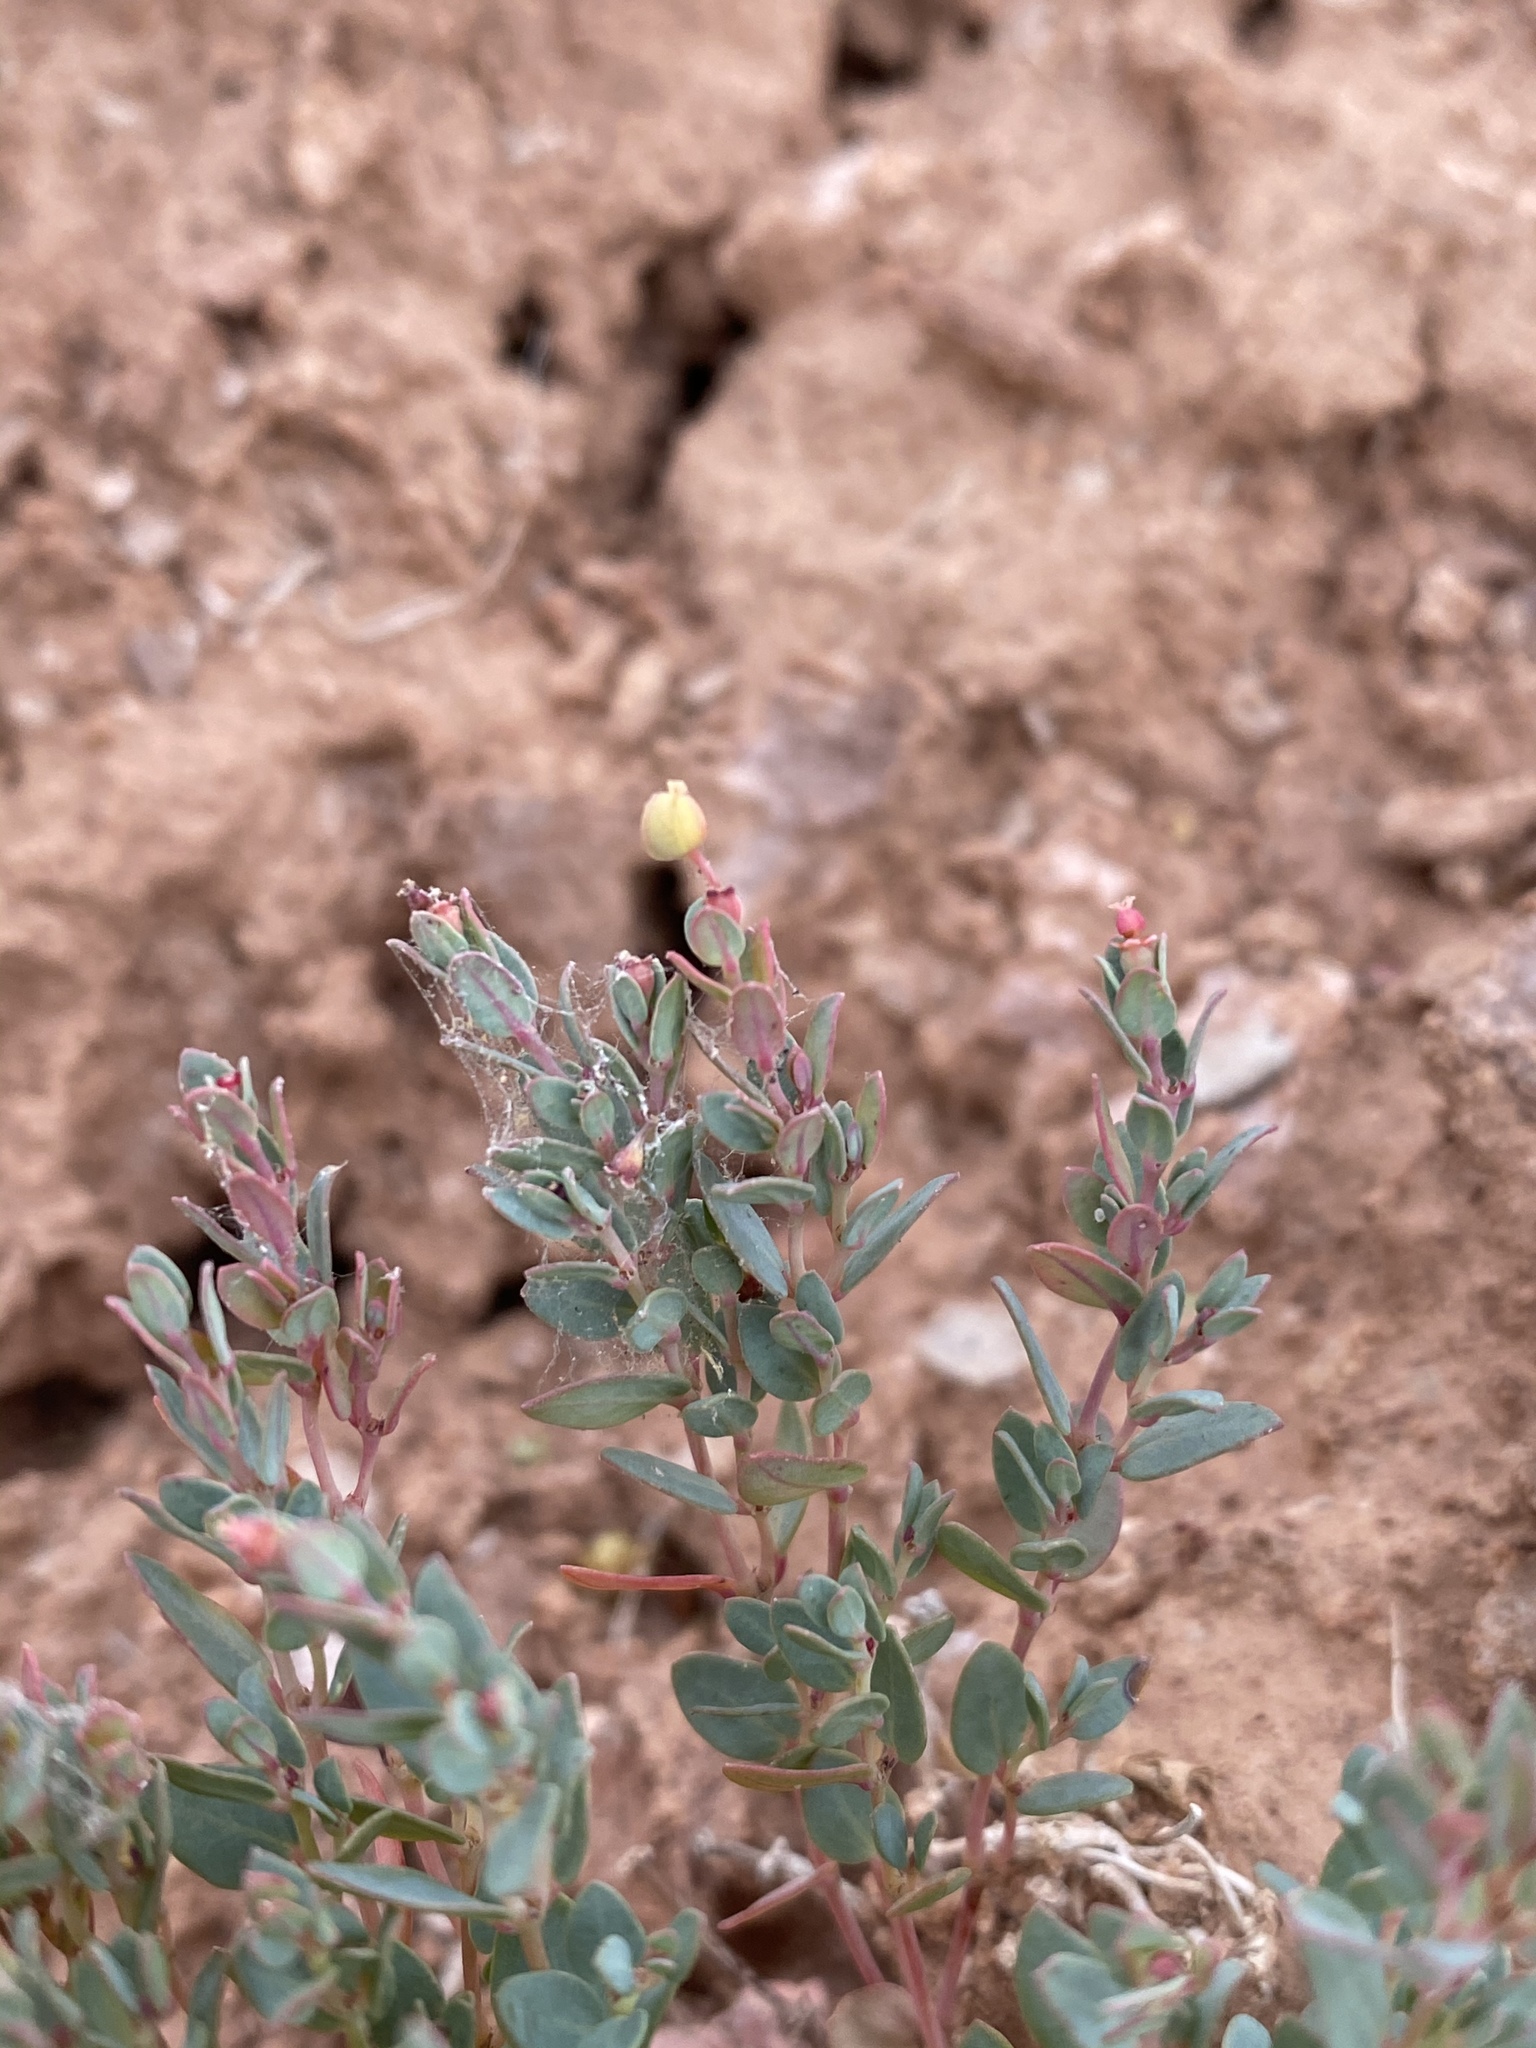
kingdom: Plantae
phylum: Tracheophyta
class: Magnoliopsida
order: Malpighiales
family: Euphorbiaceae
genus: Euphorbia
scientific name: Euphorbia fendleri
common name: Fendler's euphorbia
